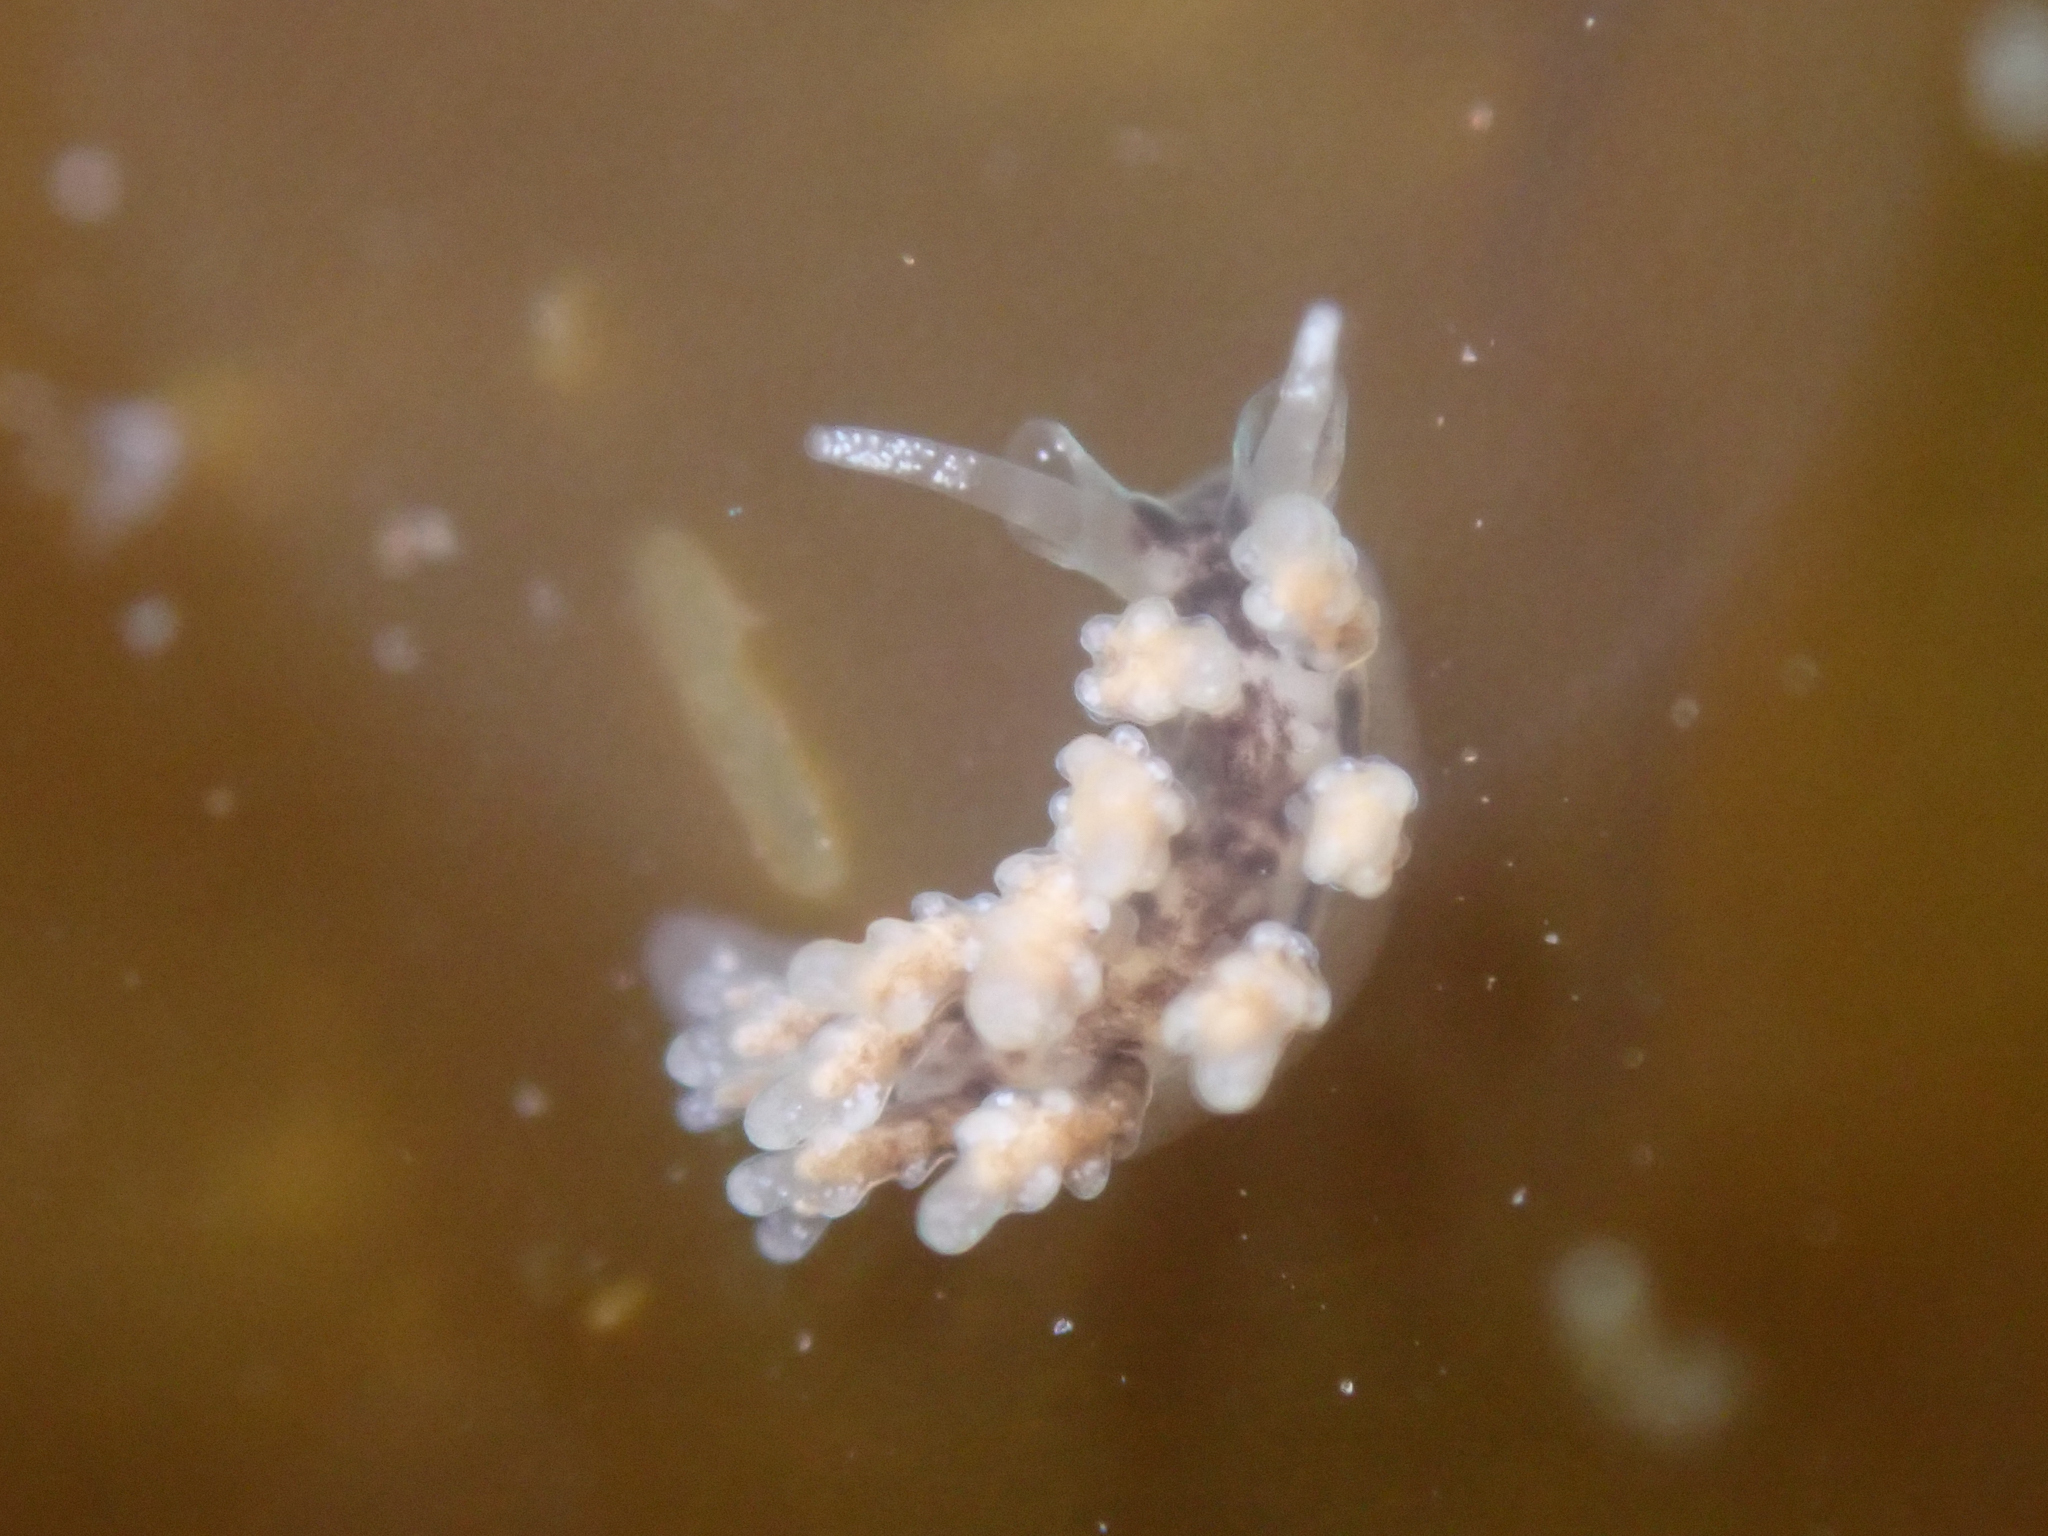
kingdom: Animalia
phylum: Mollusca
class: Gastropoda
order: Nudibranchia
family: Dotidae
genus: Doto
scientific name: Doto kya
